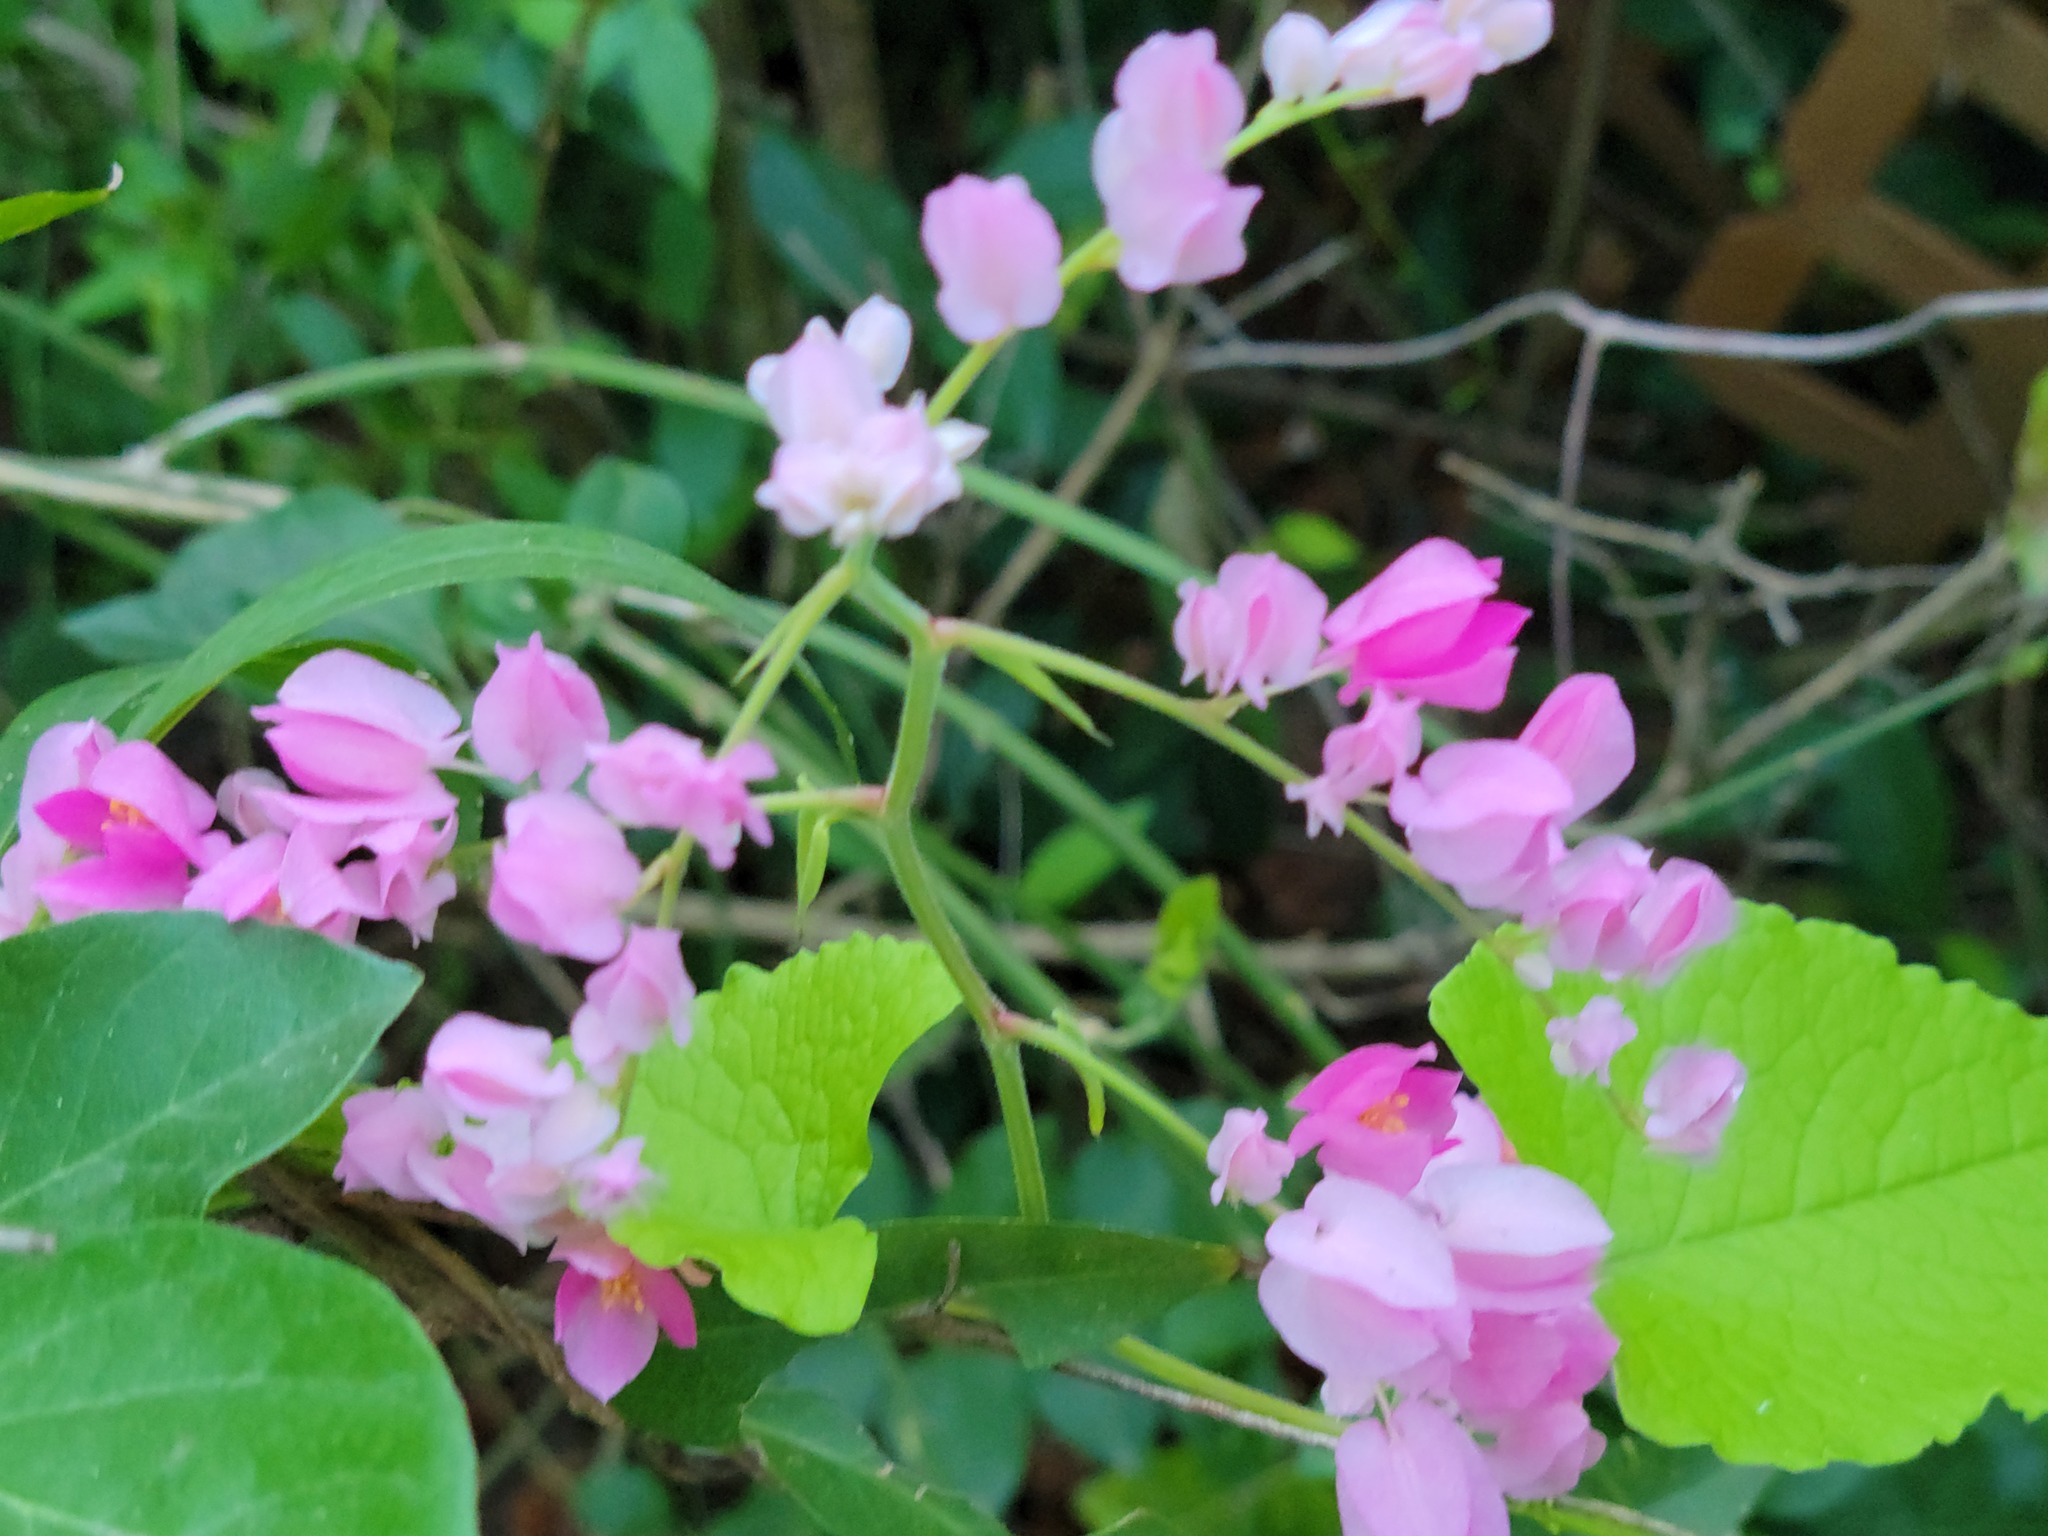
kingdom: Plantae
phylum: Tracheophyta
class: Magnoliopsida
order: Caryophyllales
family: Polygonaceae
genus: Antigonon
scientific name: Antigonon leptopus
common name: Coral vine
